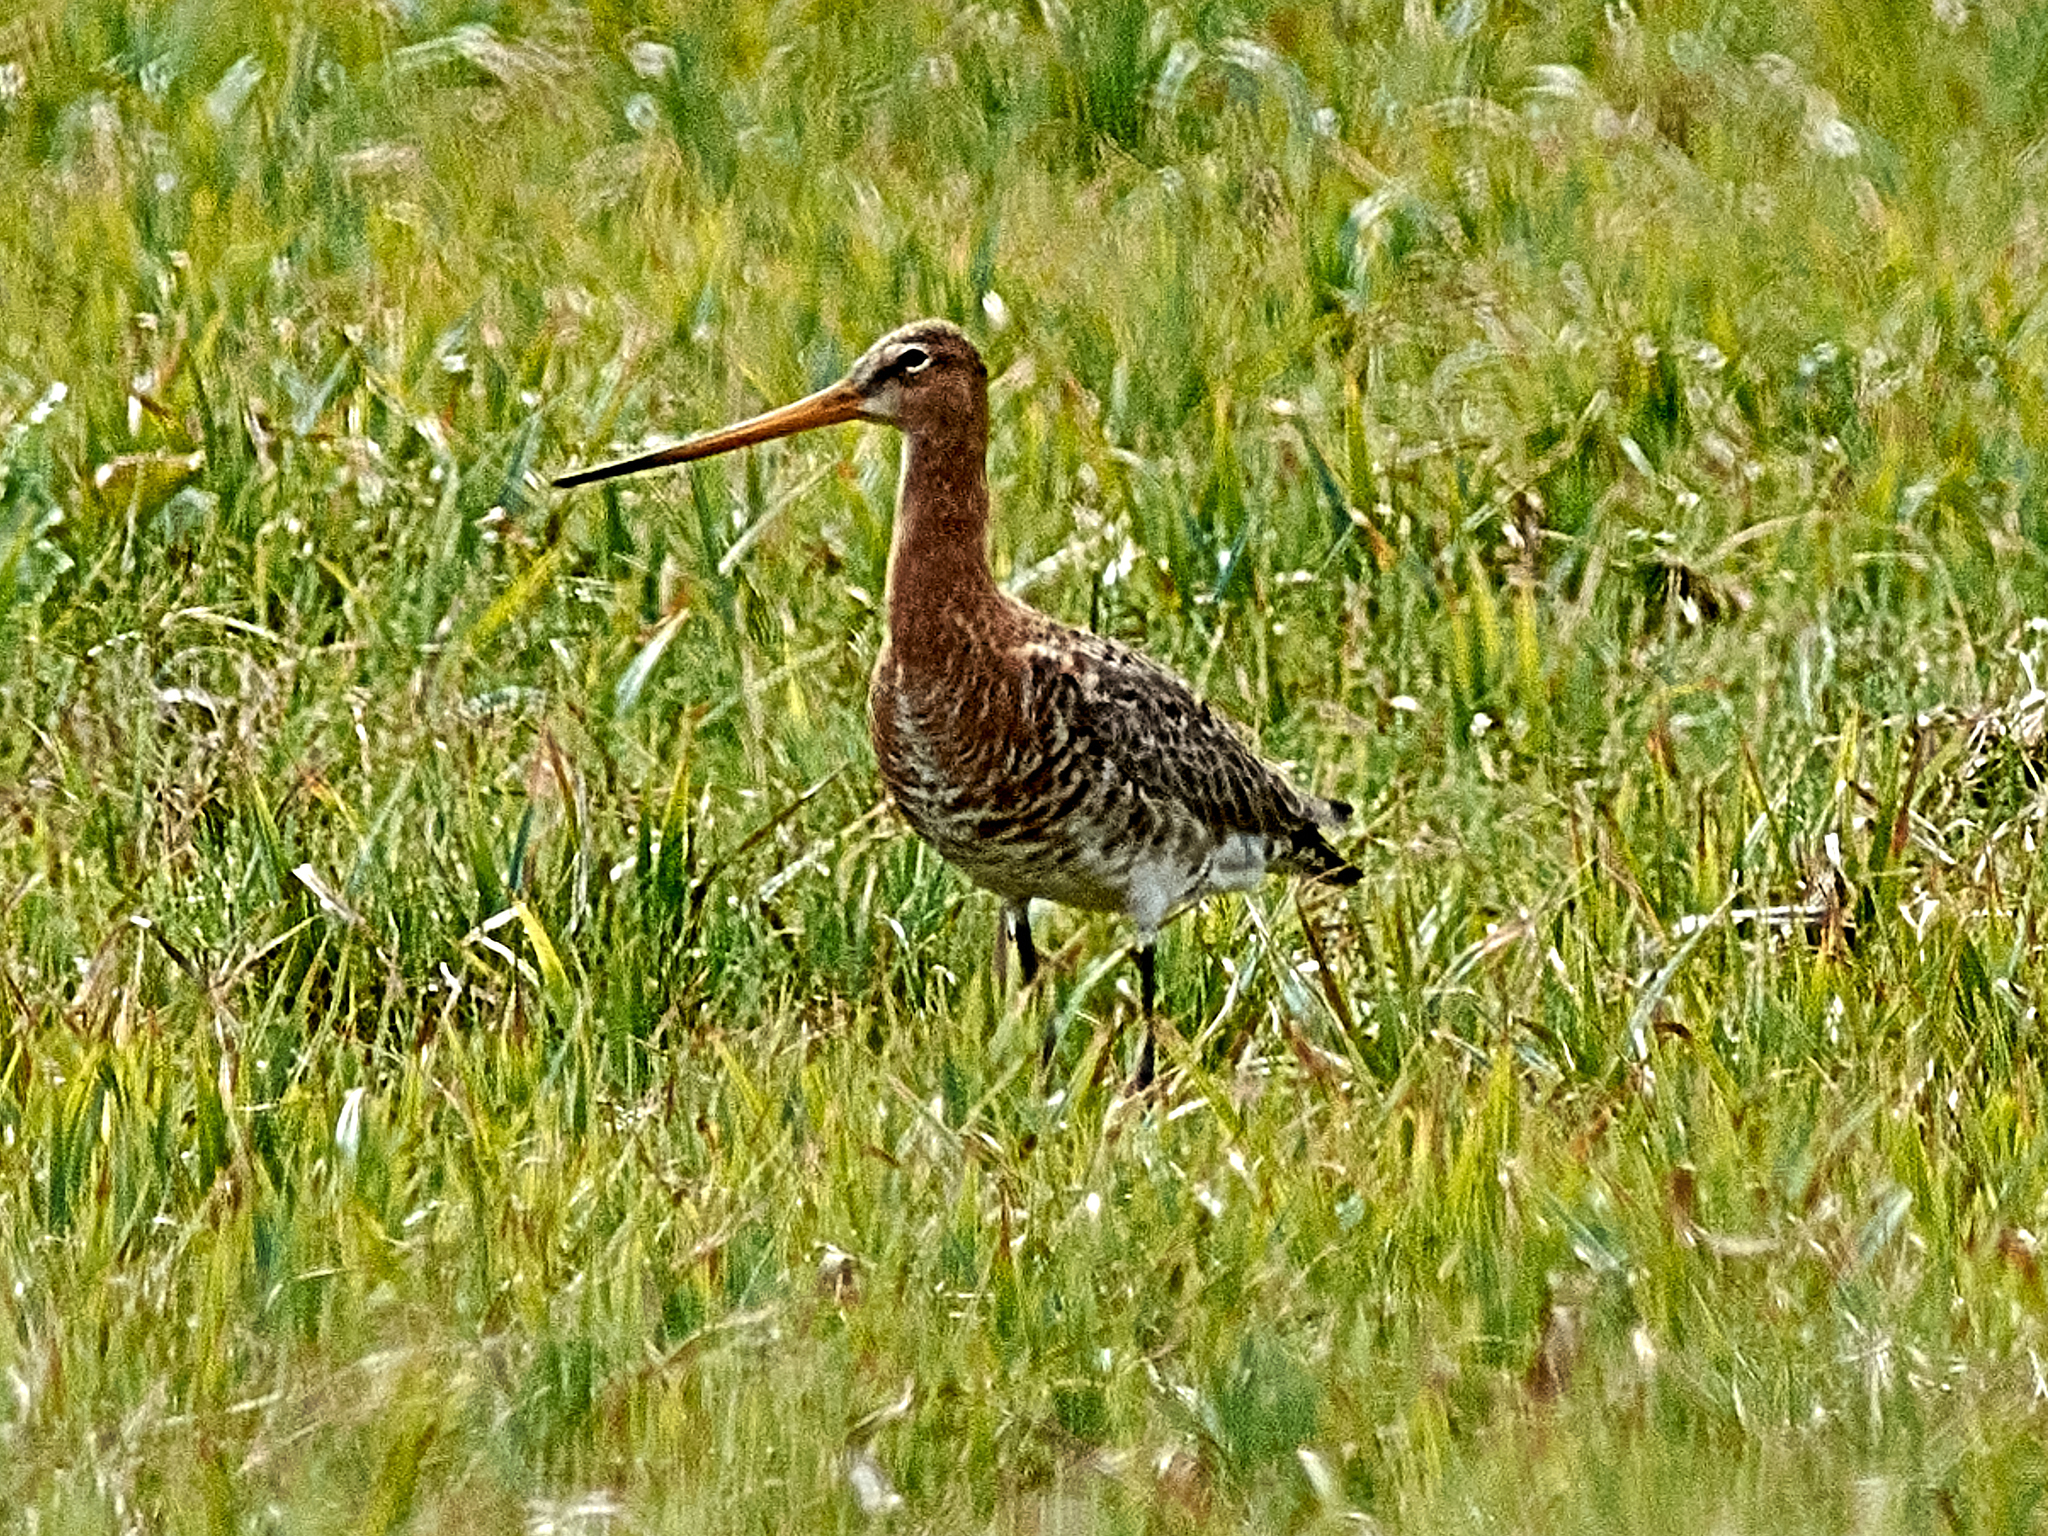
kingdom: Animalia
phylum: Chordata
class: Aves
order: Charadriiformes
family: Scolopacidae
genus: Limosa
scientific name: Limosa limosa
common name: Black-tailed godwit
